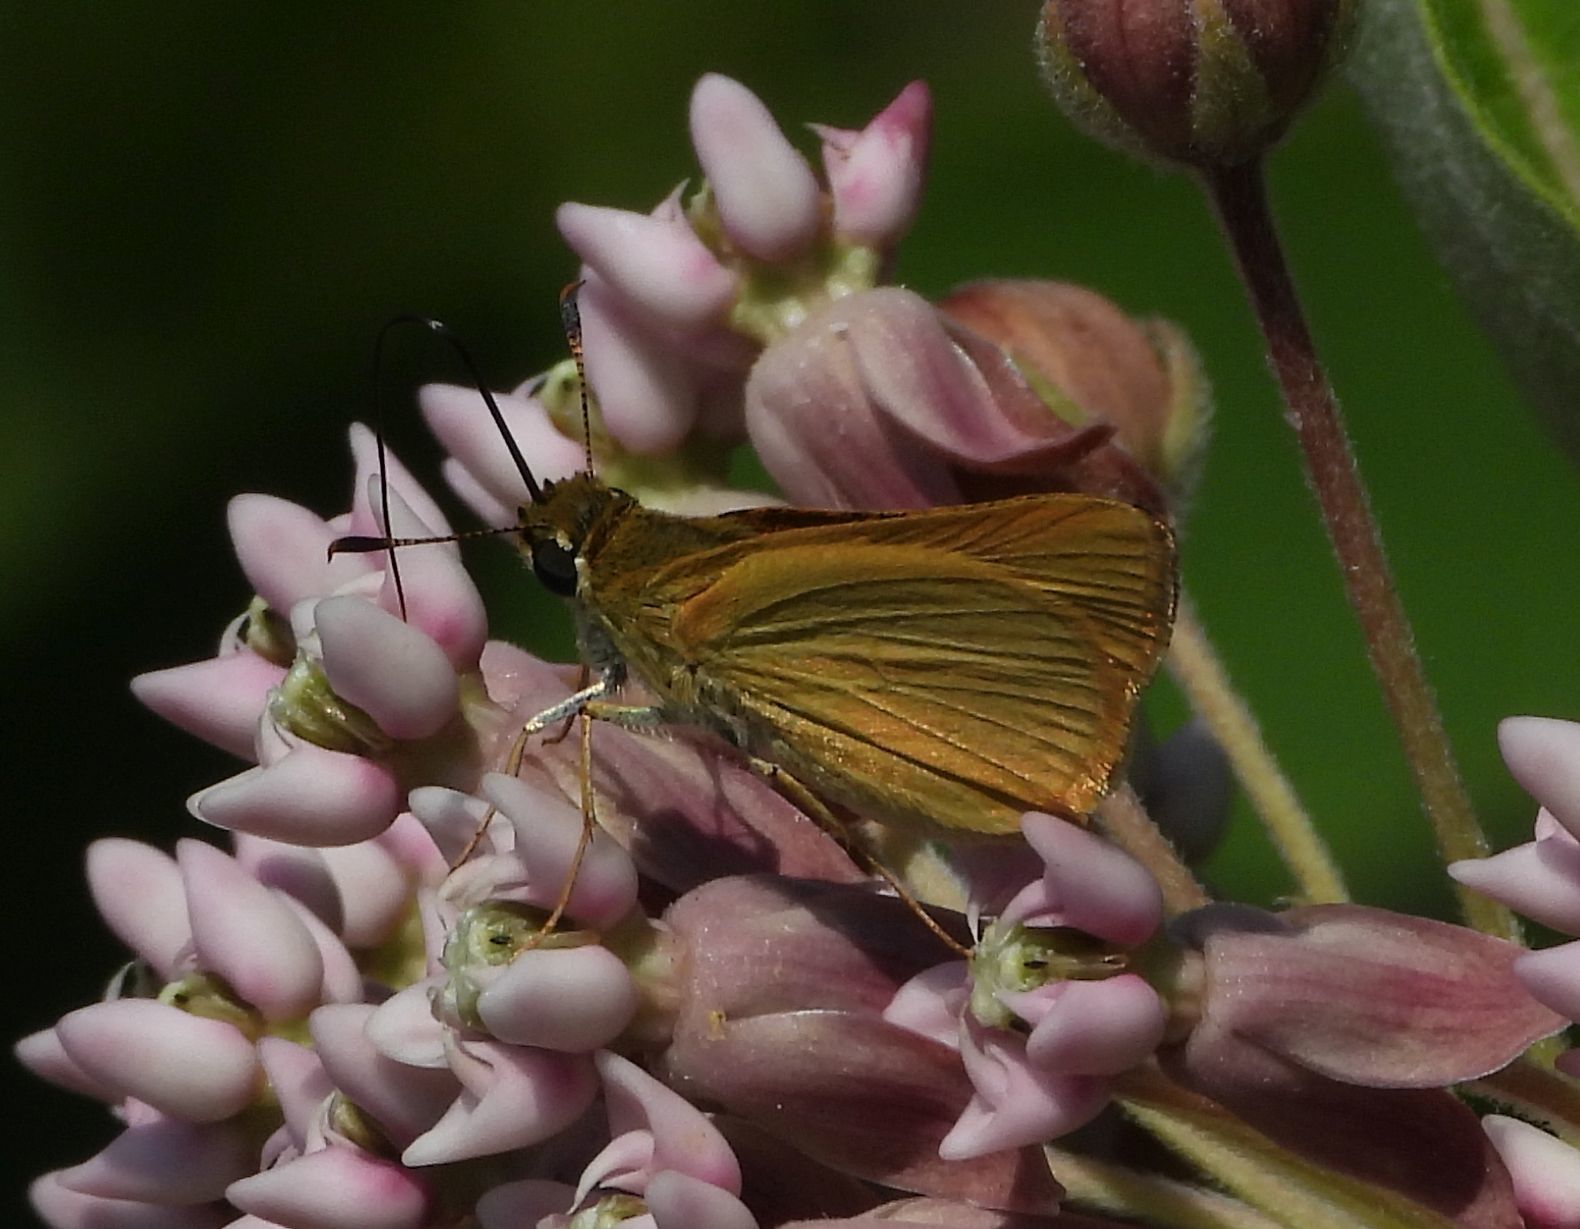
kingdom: Animalia
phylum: Arthropoda
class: Insecta
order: Lepidoptera
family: Hesperiidae
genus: Atrytone
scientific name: Atrytone delaware
